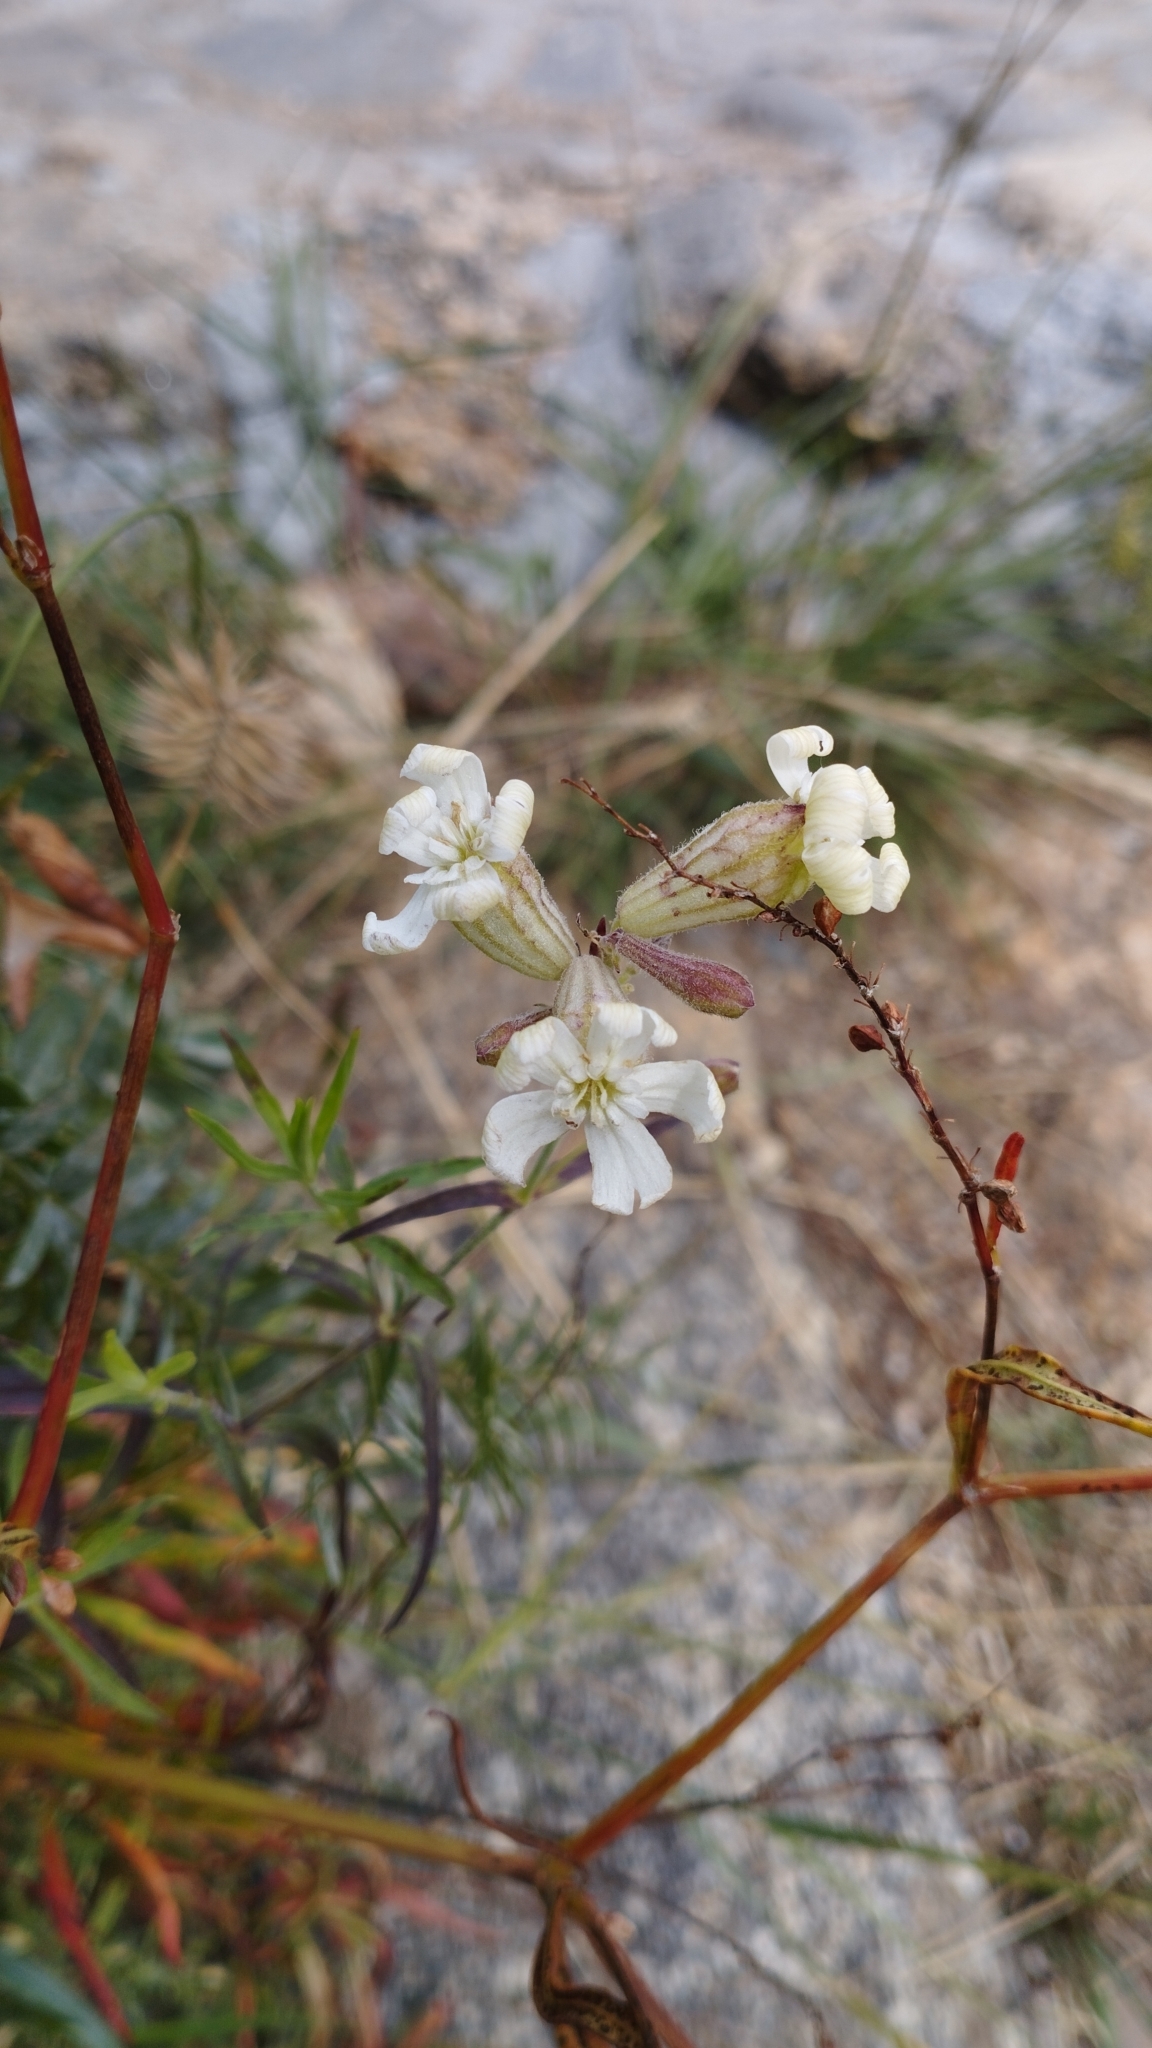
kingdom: Plantae
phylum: Tracheophyta
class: Magnoliopsida
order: Caryophyllales
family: Caryophyllaceae
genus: Silene
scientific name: Silene amoena
